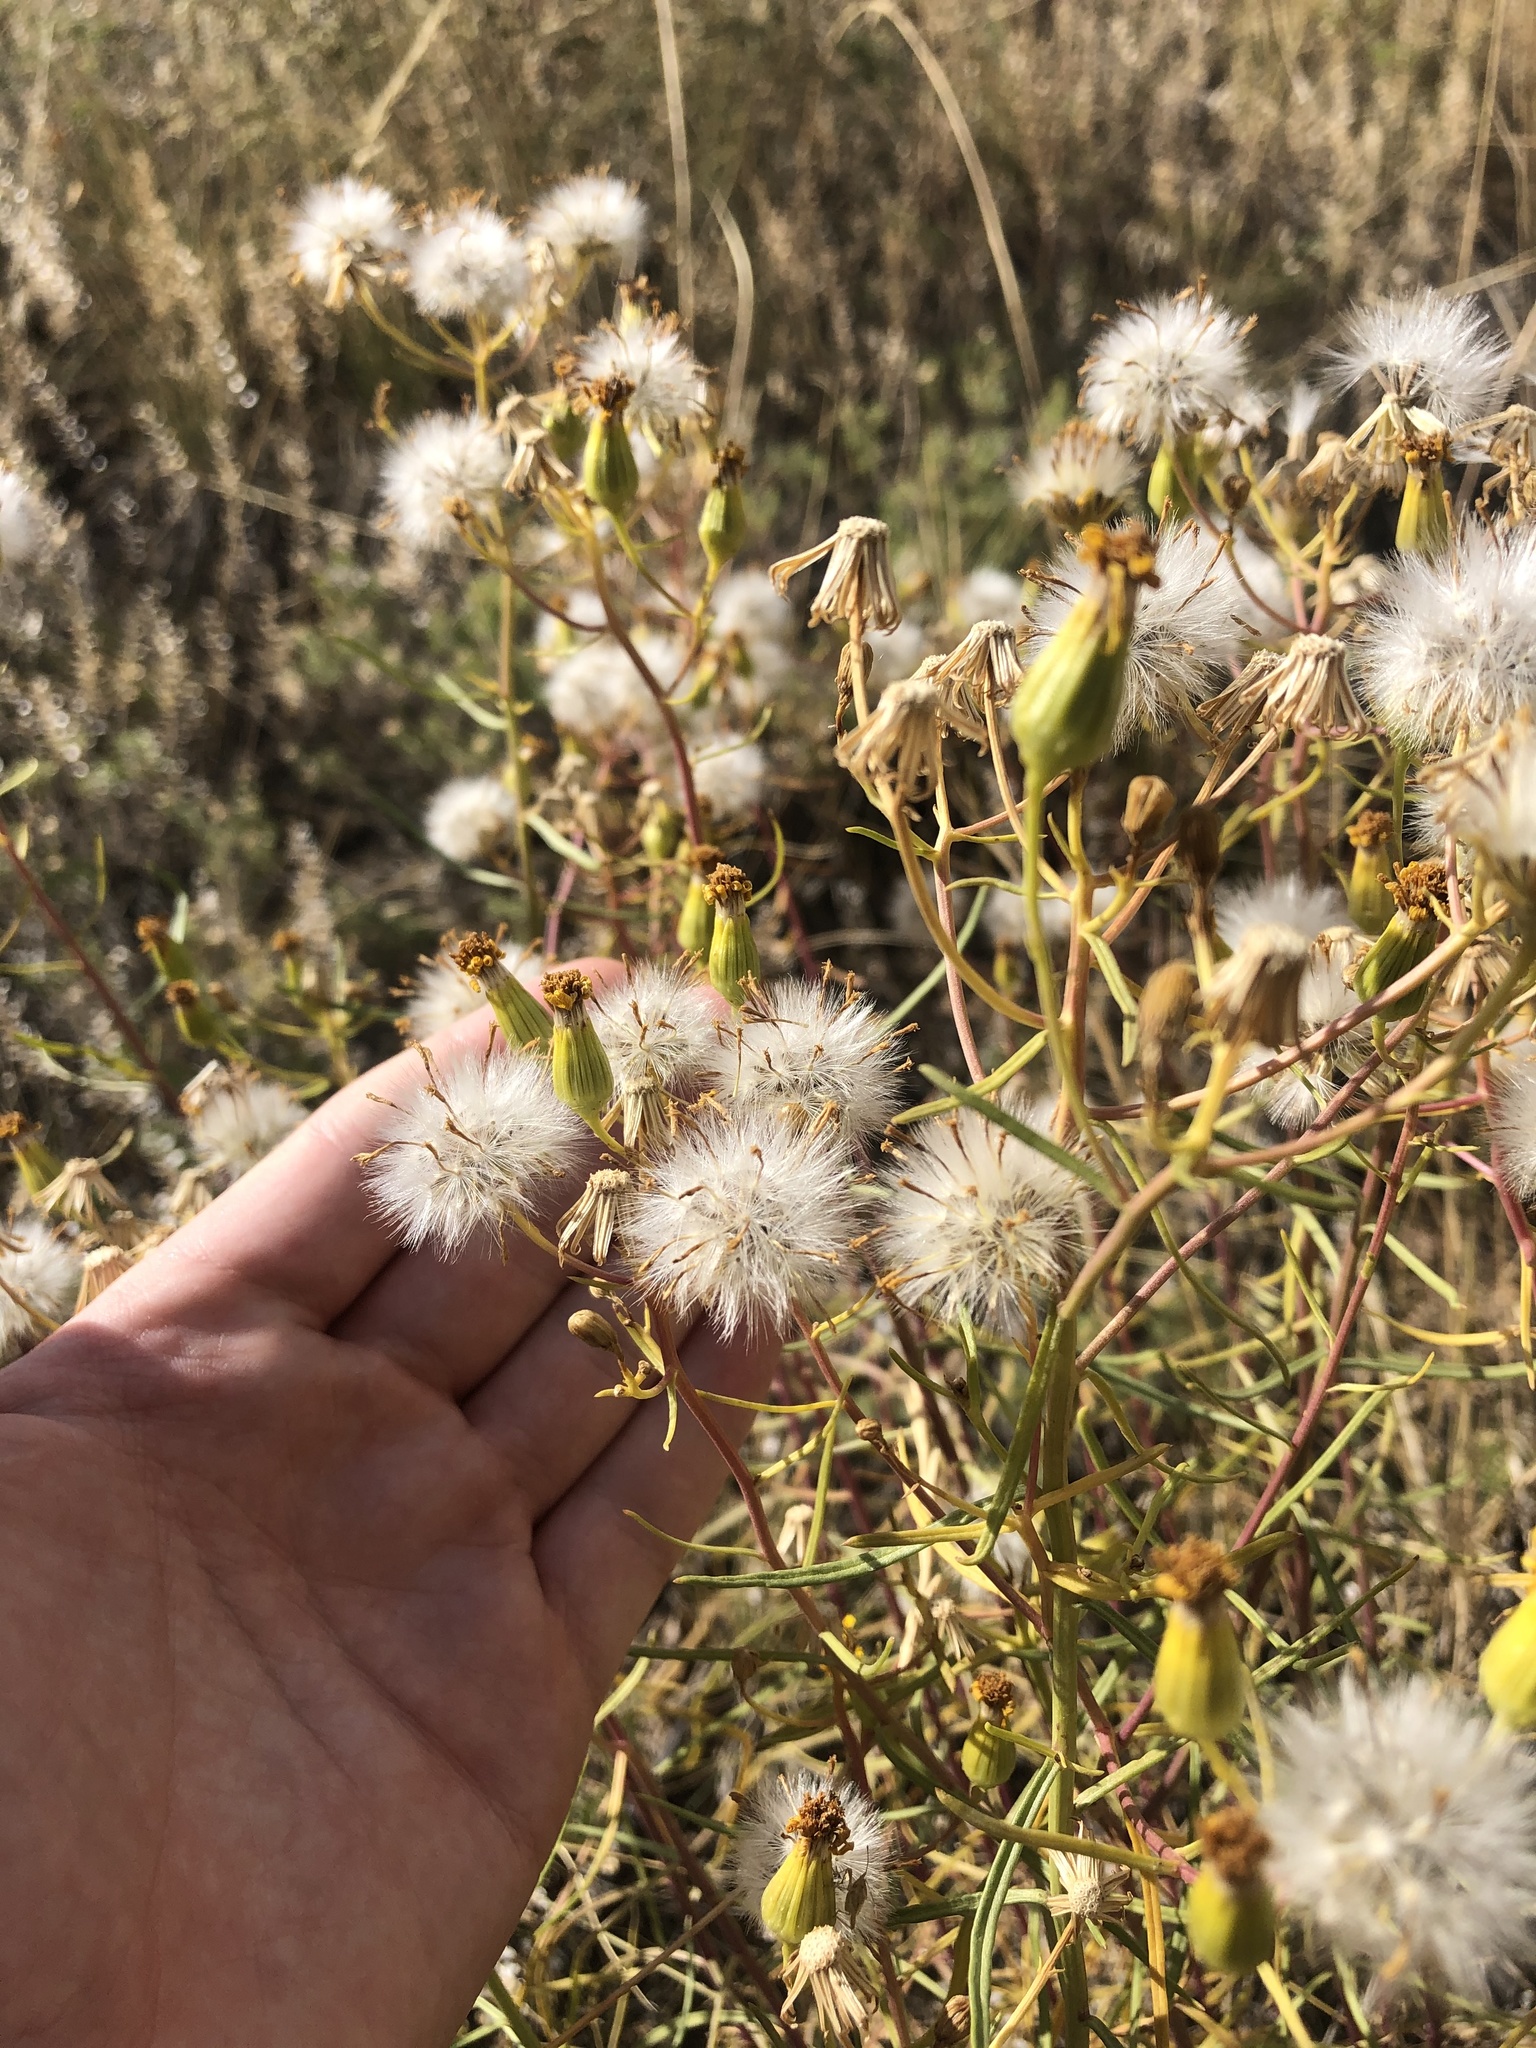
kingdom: Plantae
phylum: Tracheophyta
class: Magnoliopsida
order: Asterales
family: Asteraceae
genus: Senecio
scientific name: Senecio spartioides
